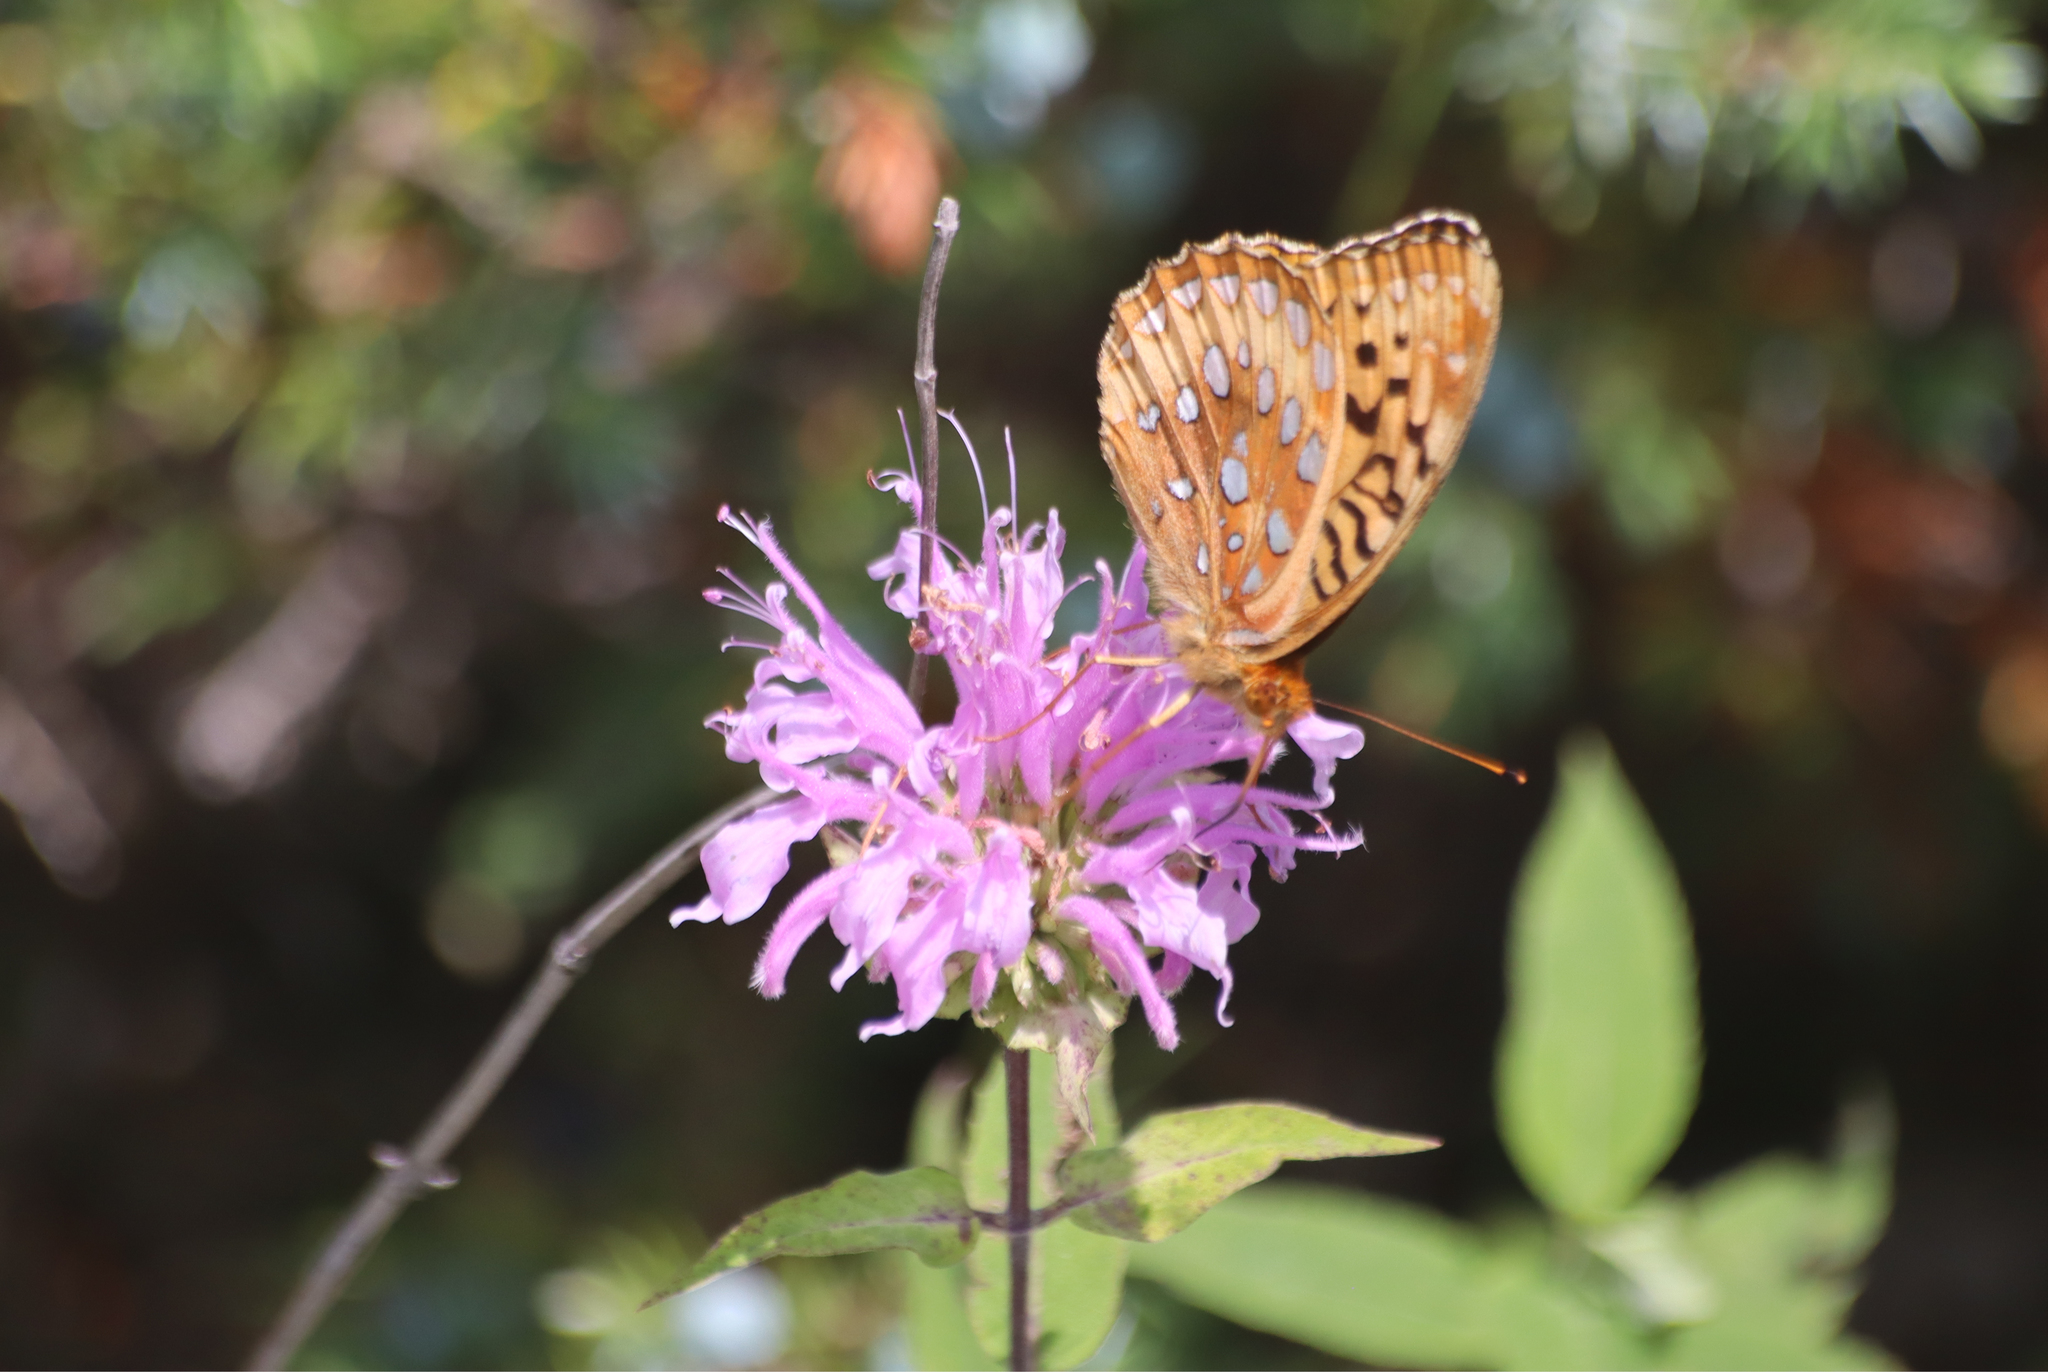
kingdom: Animalia
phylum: Arthropoda
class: Insecta
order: Lepidoptera
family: Nymphalidae
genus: Speyeria
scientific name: Speyeria cybele
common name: Great spangled fritillary
